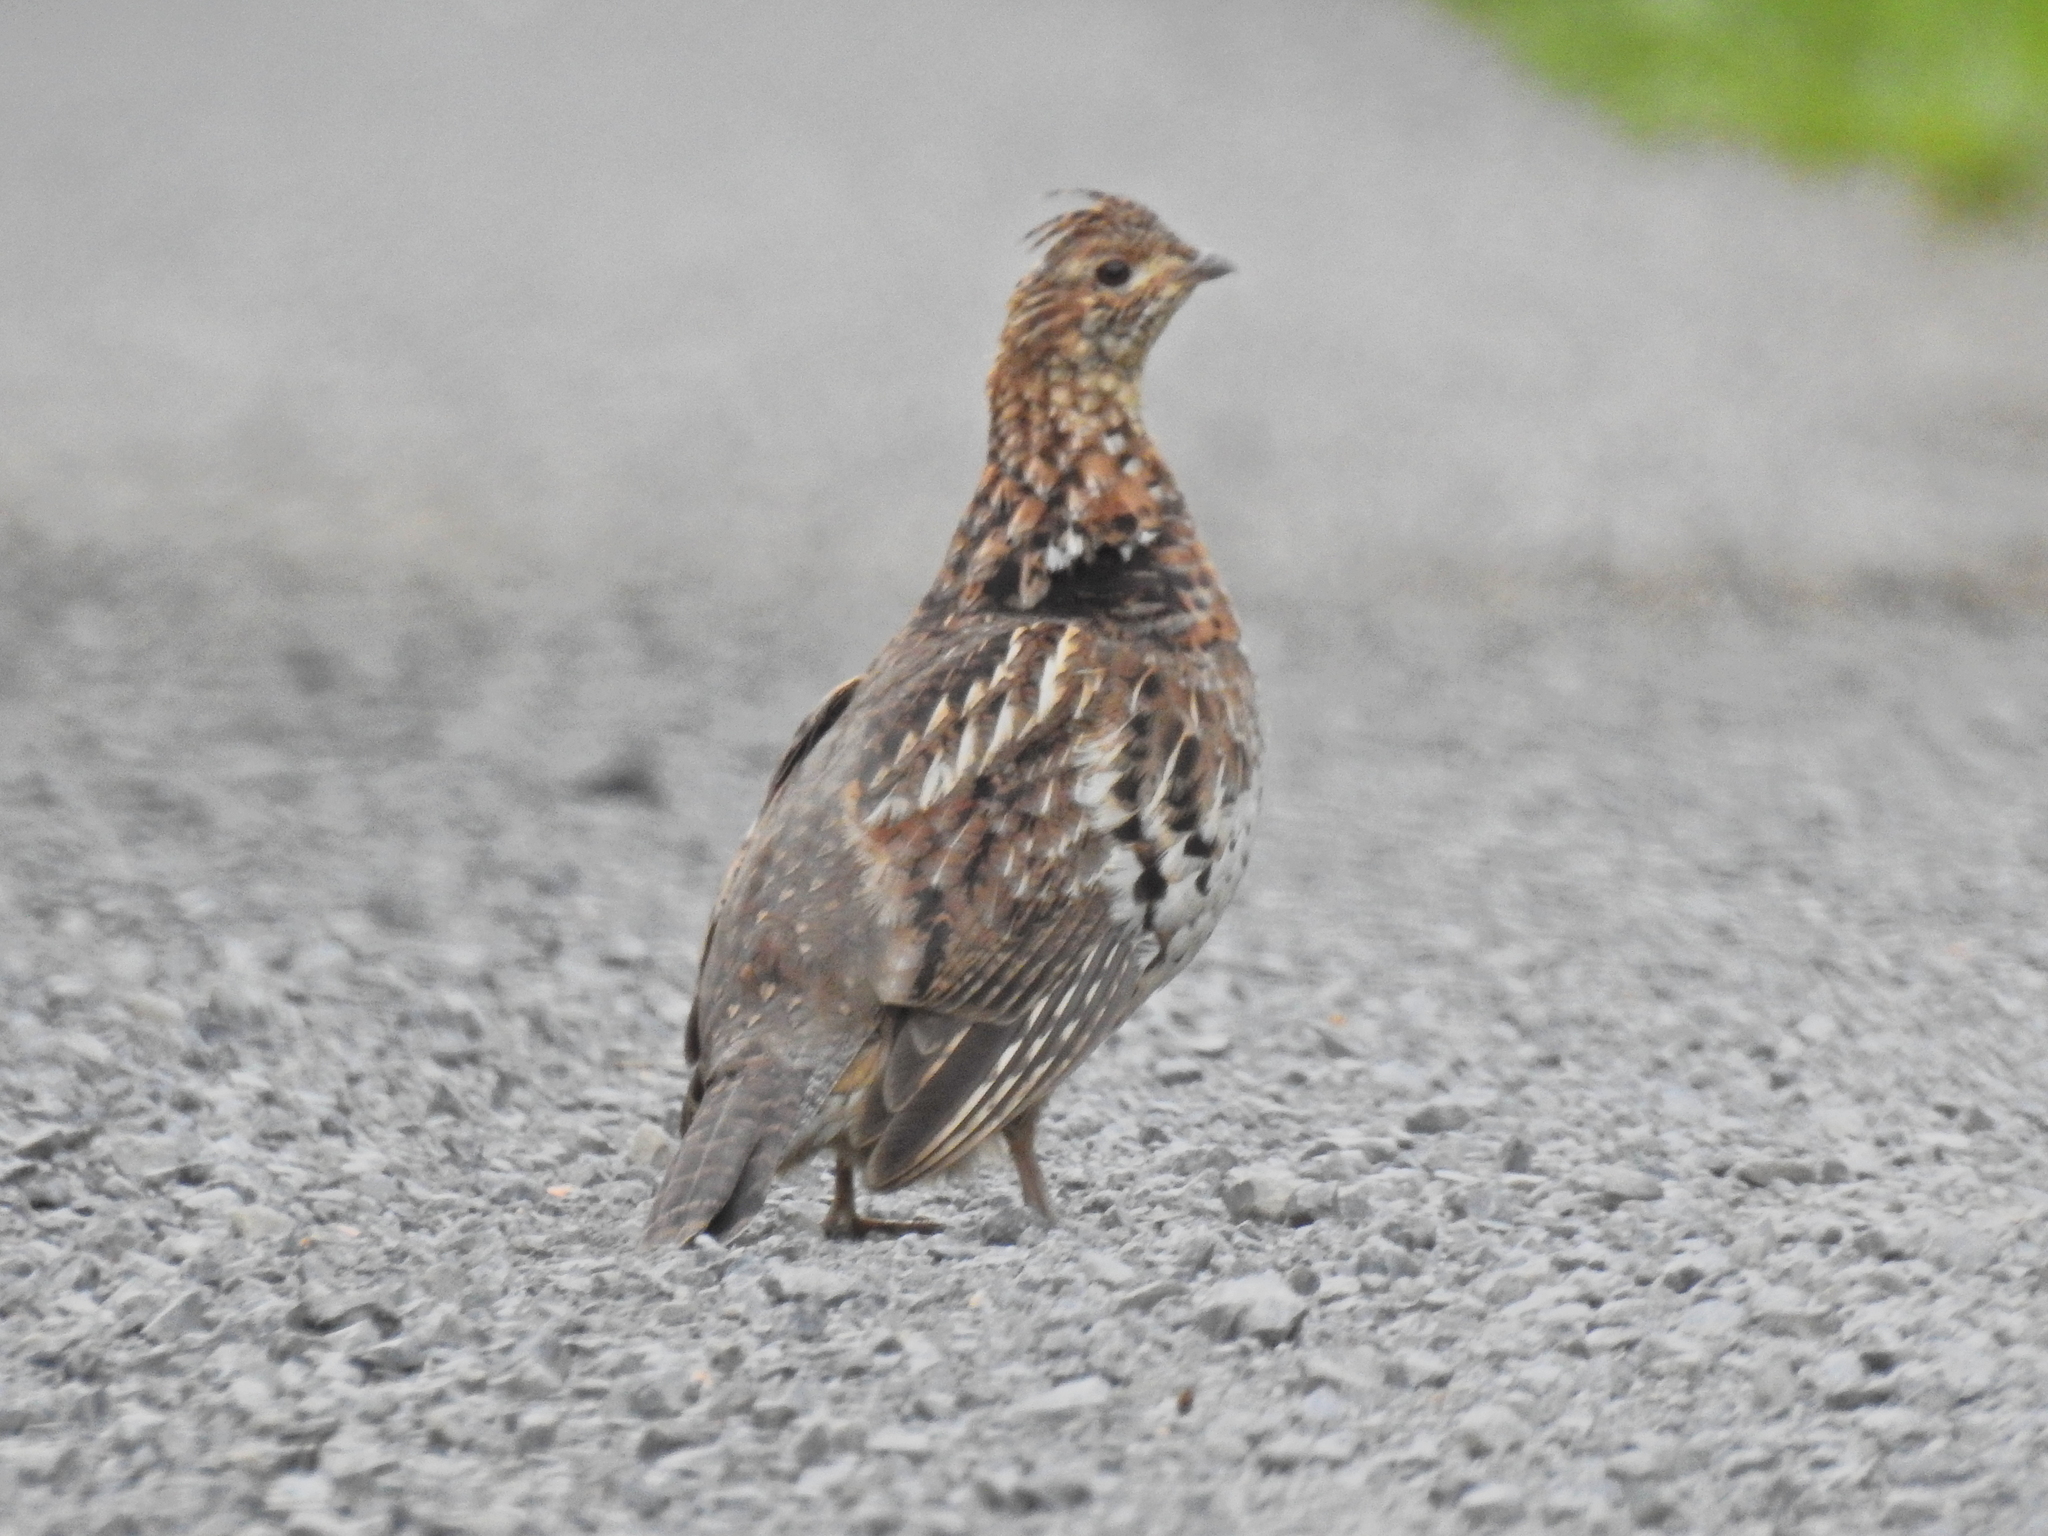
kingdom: Animalia
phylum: Chordata
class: Aves
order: Galliformes
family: Phasianidae
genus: Bonasa
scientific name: Bonasa umbellus
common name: Ruffed grouse
